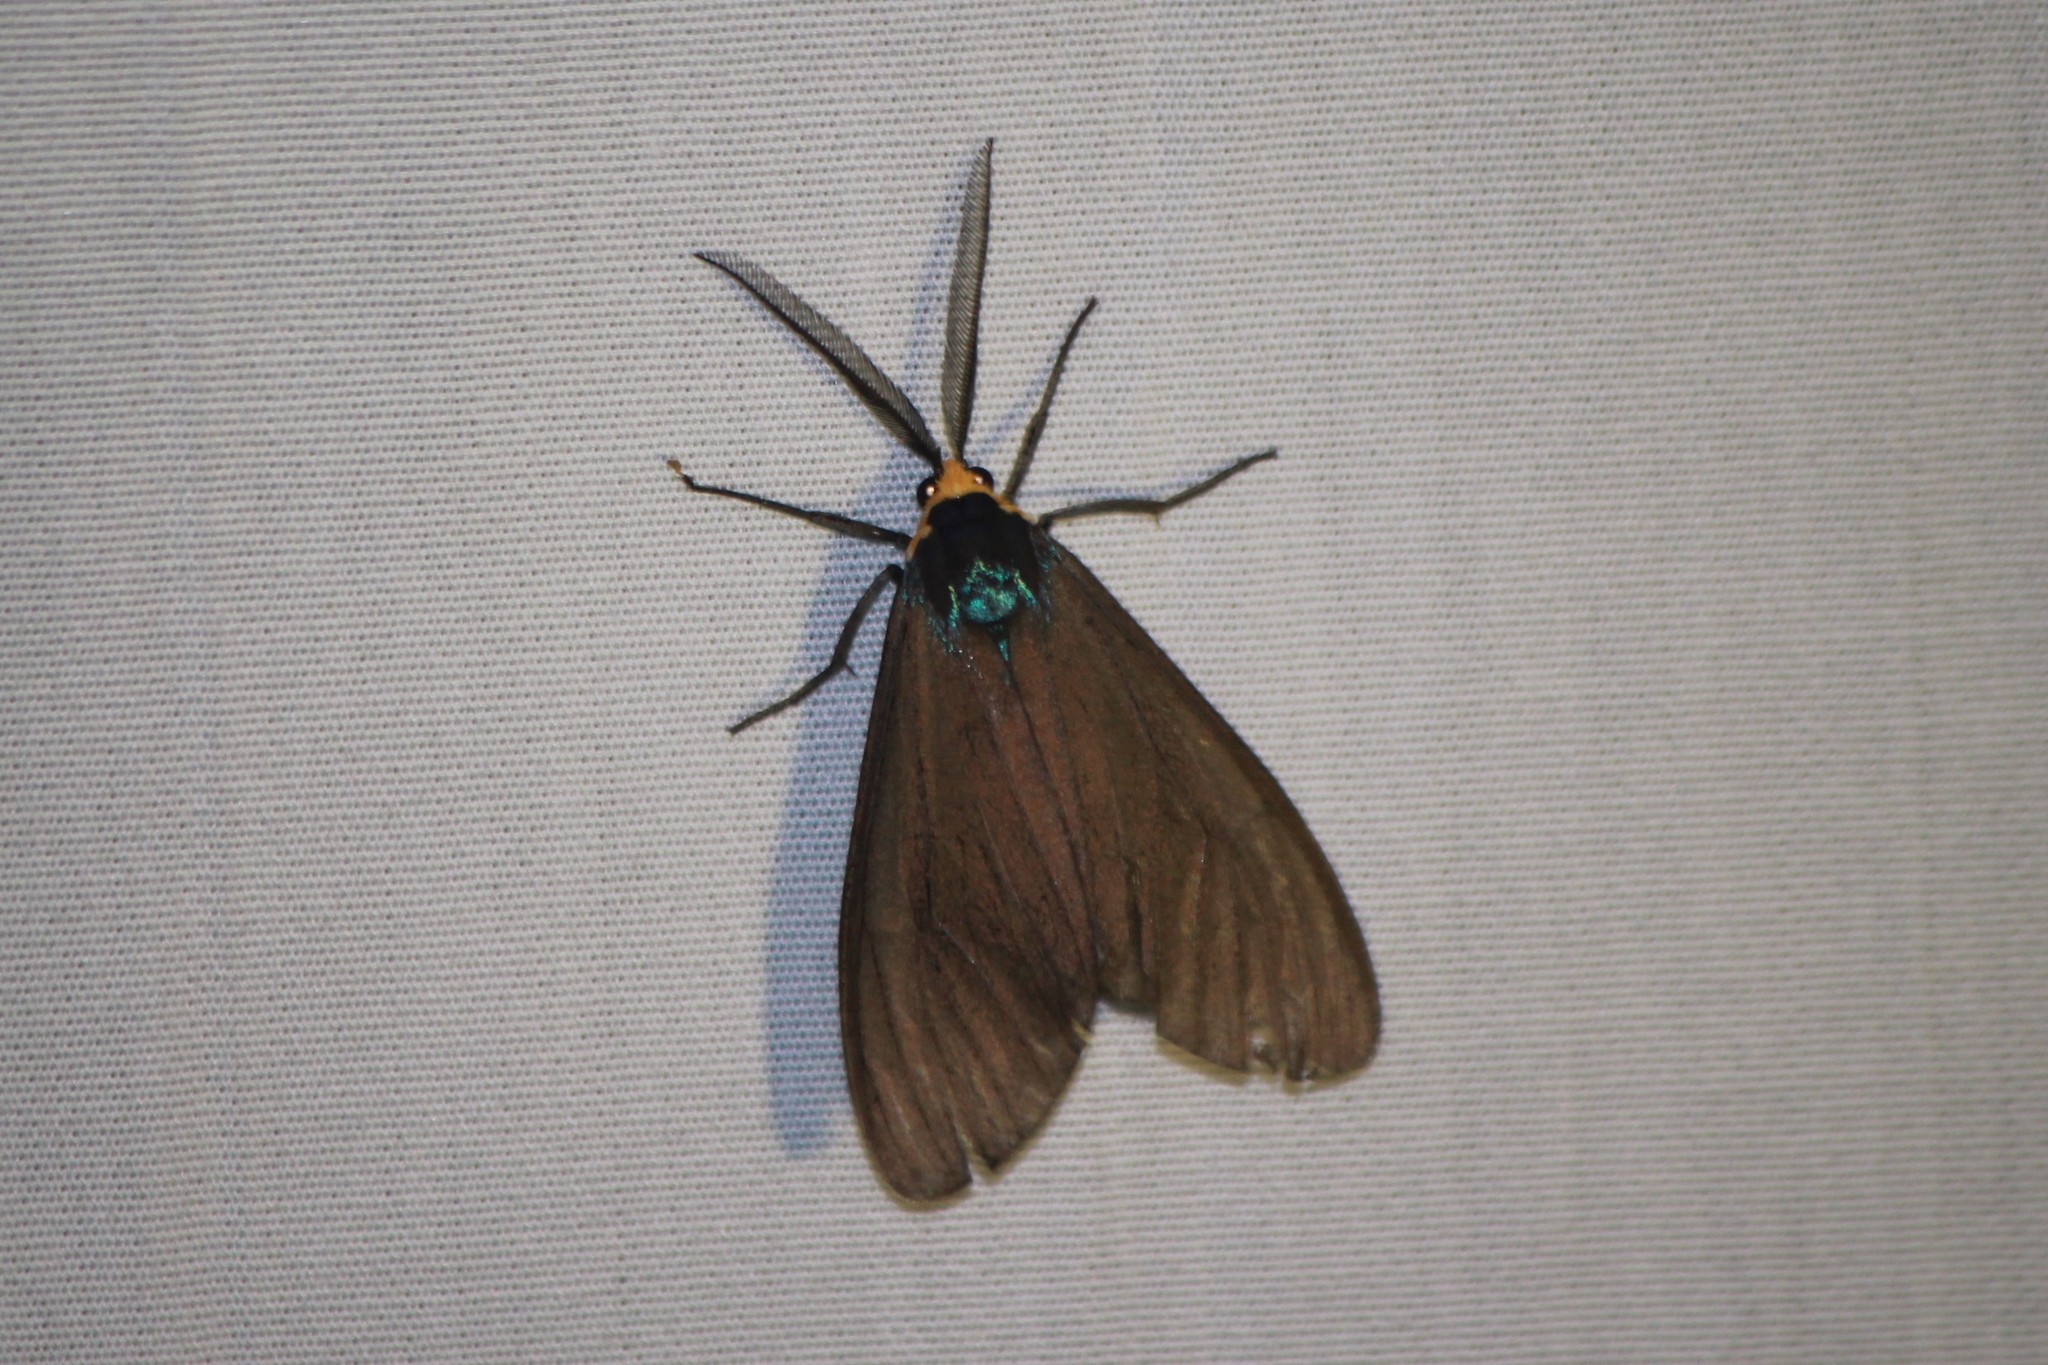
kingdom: Animalia
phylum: Arthropoda
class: Insecta
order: Lepidoptera
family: Erebidae
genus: Ctenucha
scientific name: Ctenucha virginica
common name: Virginia ctenucha moth
